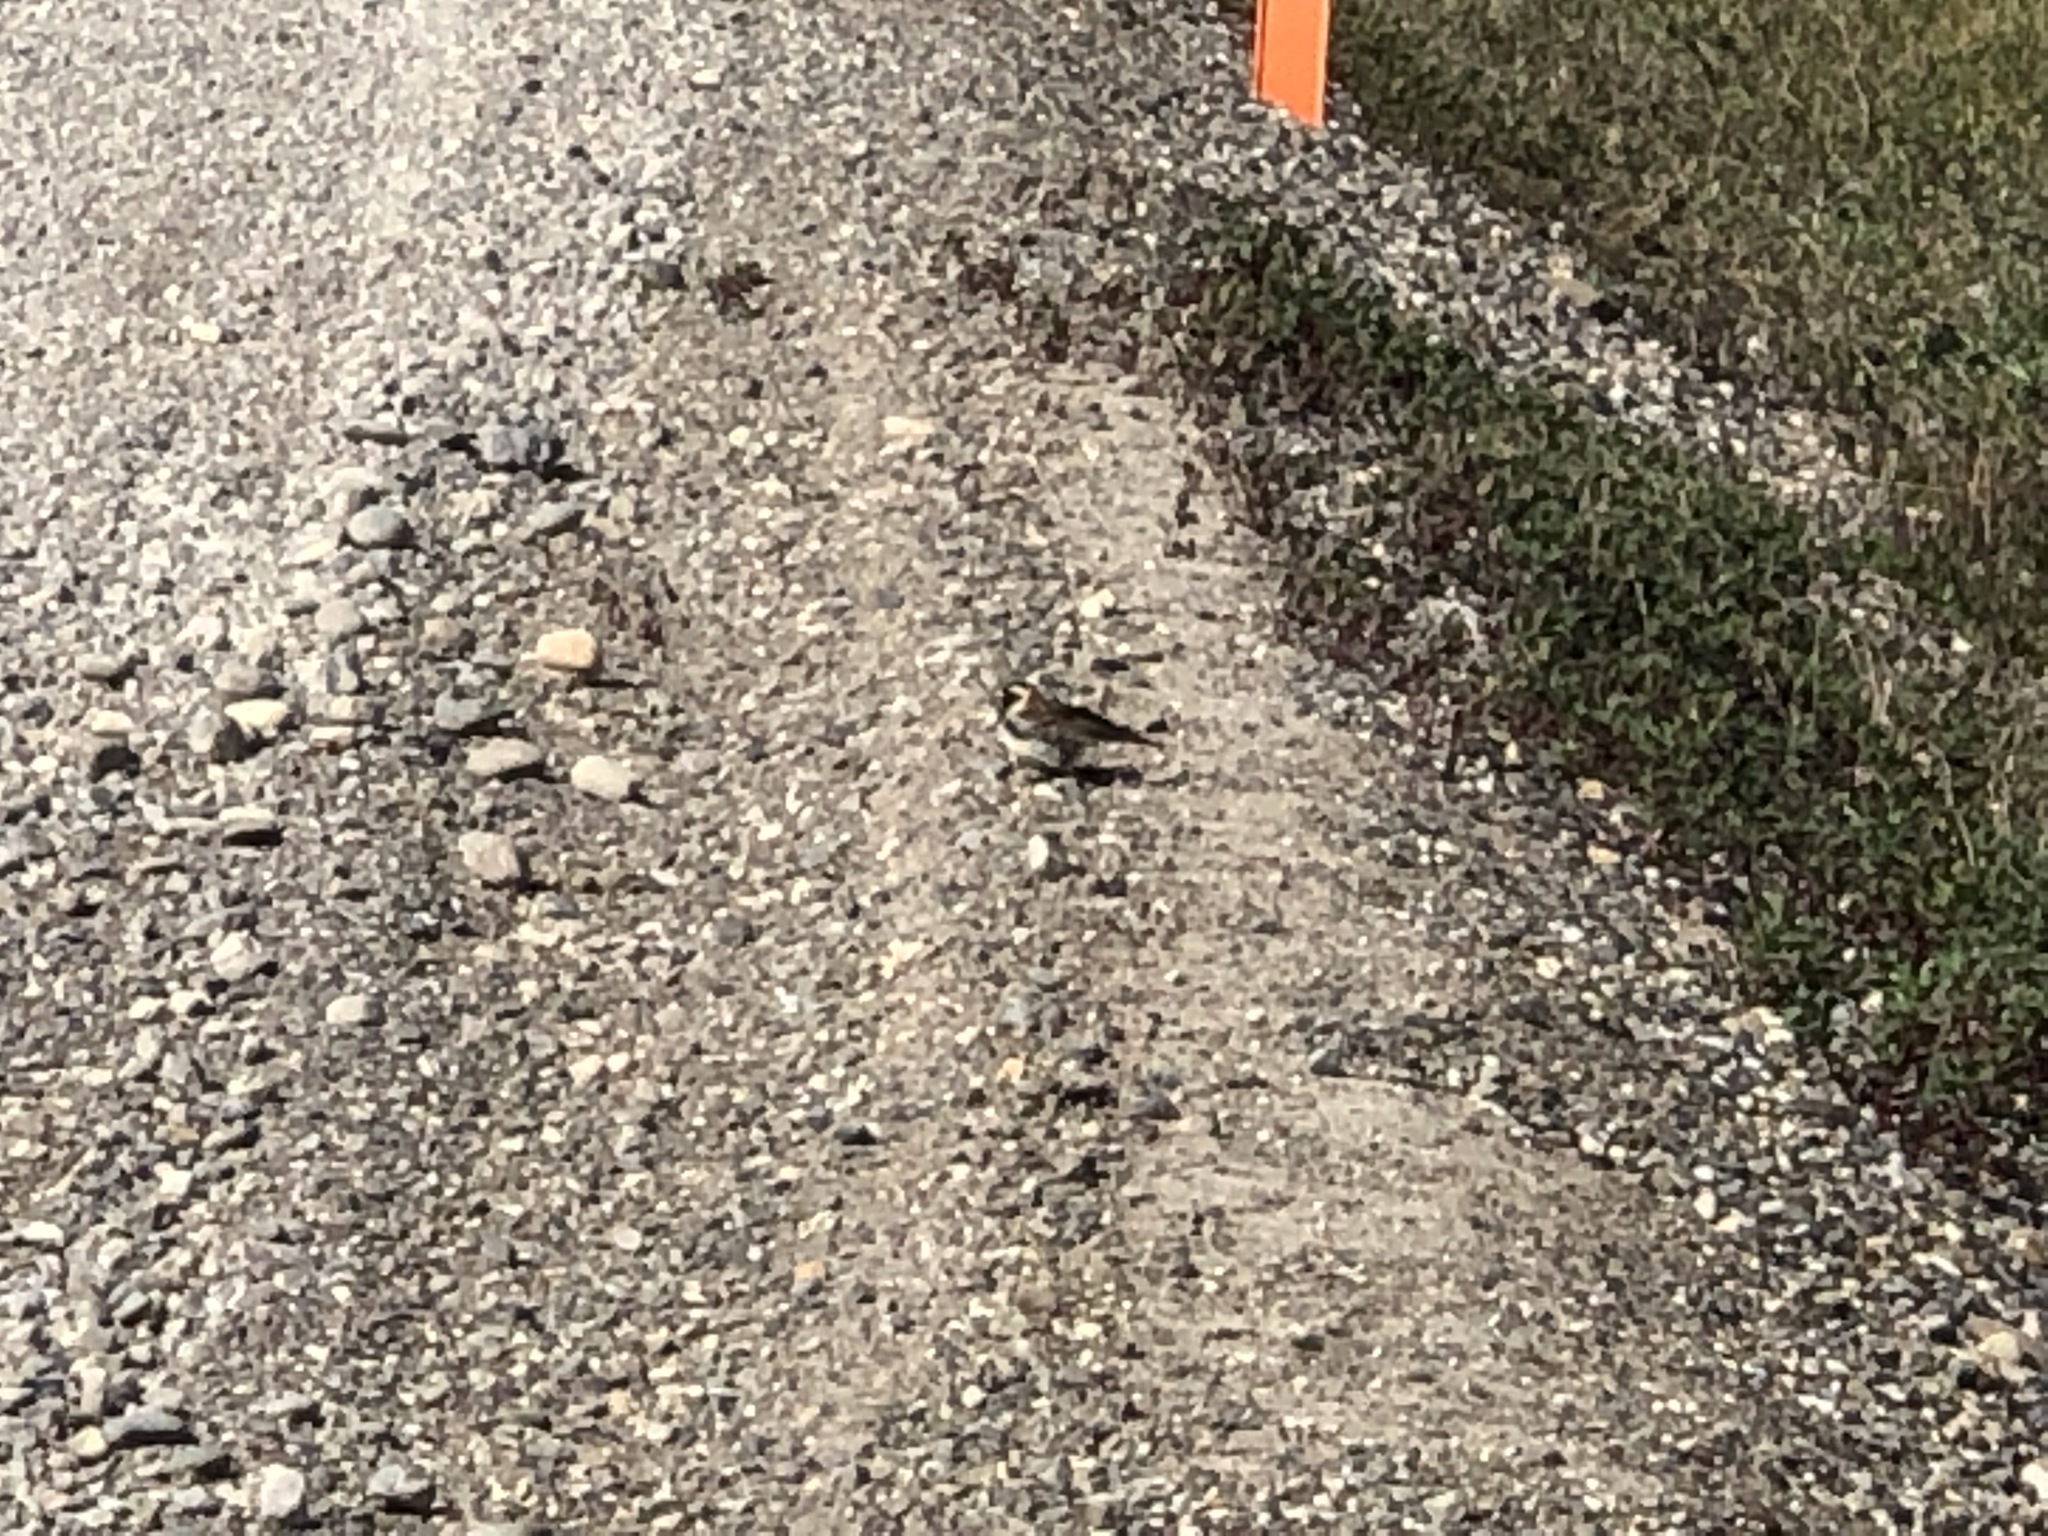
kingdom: Animalia
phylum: Chordata
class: Aves
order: Passeriformes
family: Calcariidae
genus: Calcarius
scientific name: Calcarius lapponicus
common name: Lapland longspur
